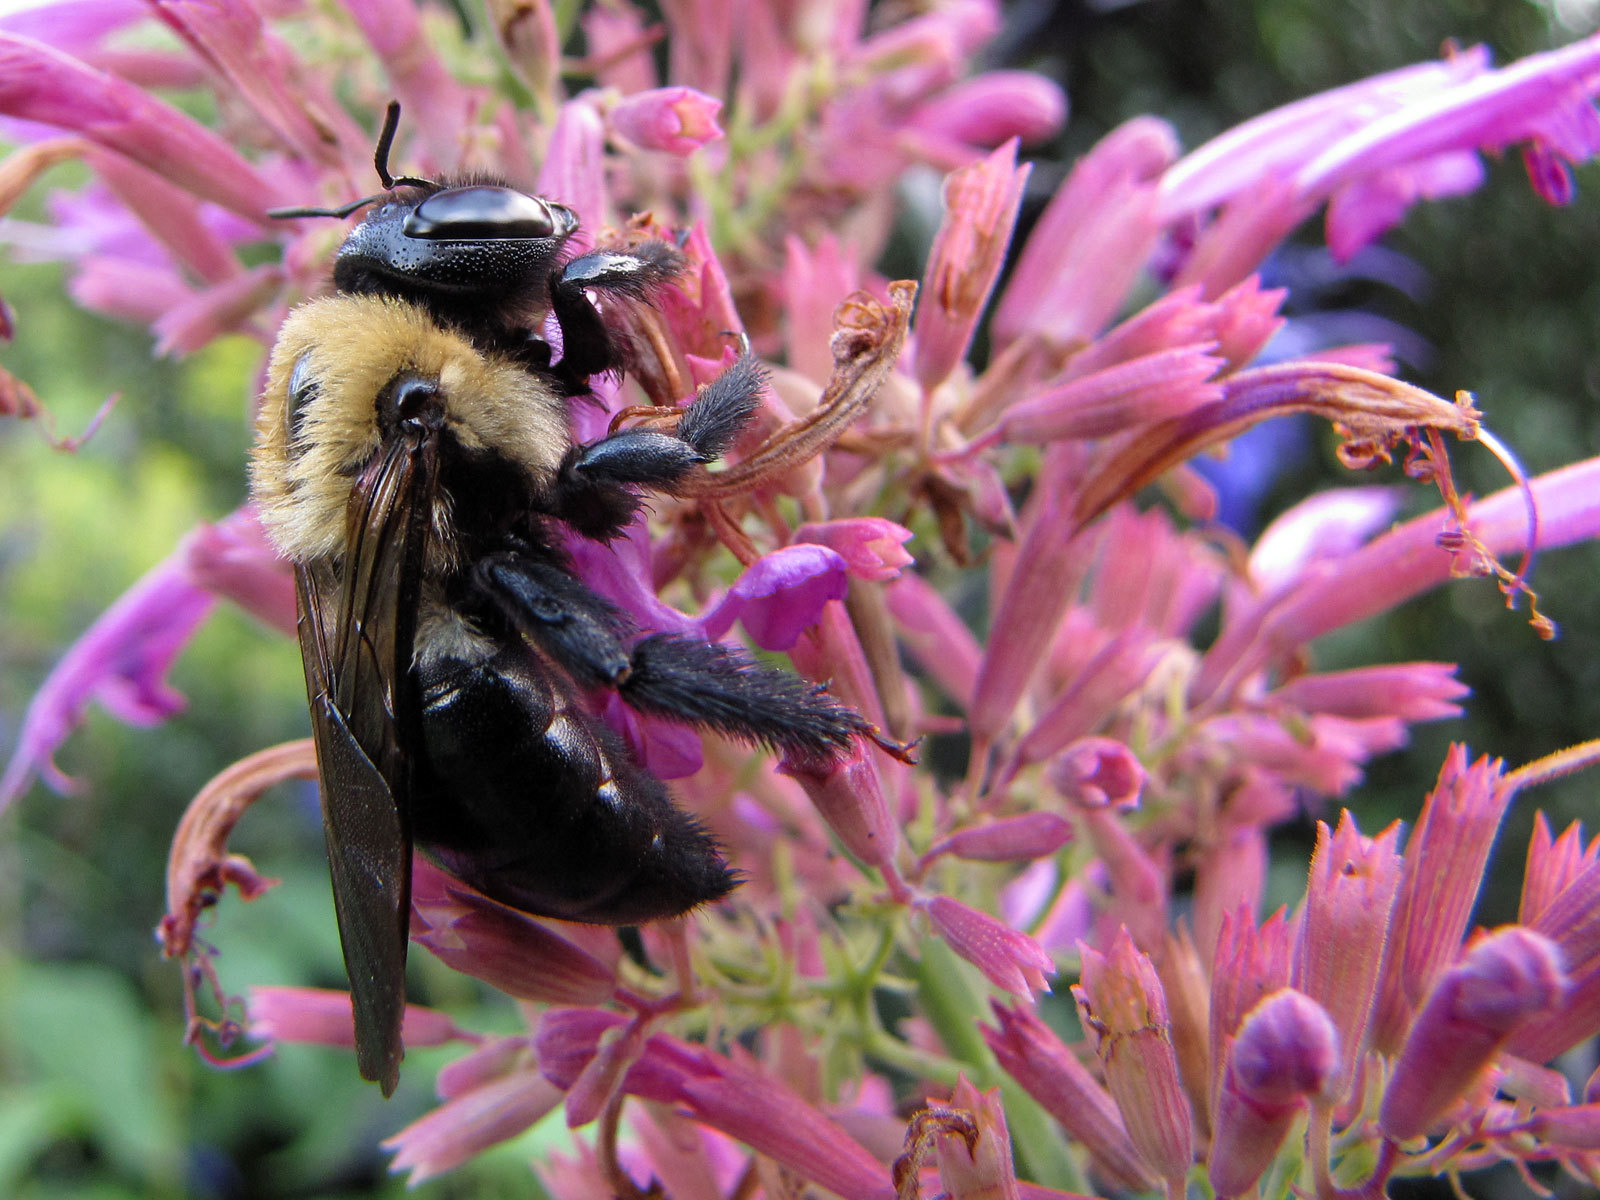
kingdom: Animalia
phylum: Arthropoda
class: Insecta
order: Hymenoptera
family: Apidae
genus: Xylocopa
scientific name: Xylocopa virginica
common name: Carpenter bee
